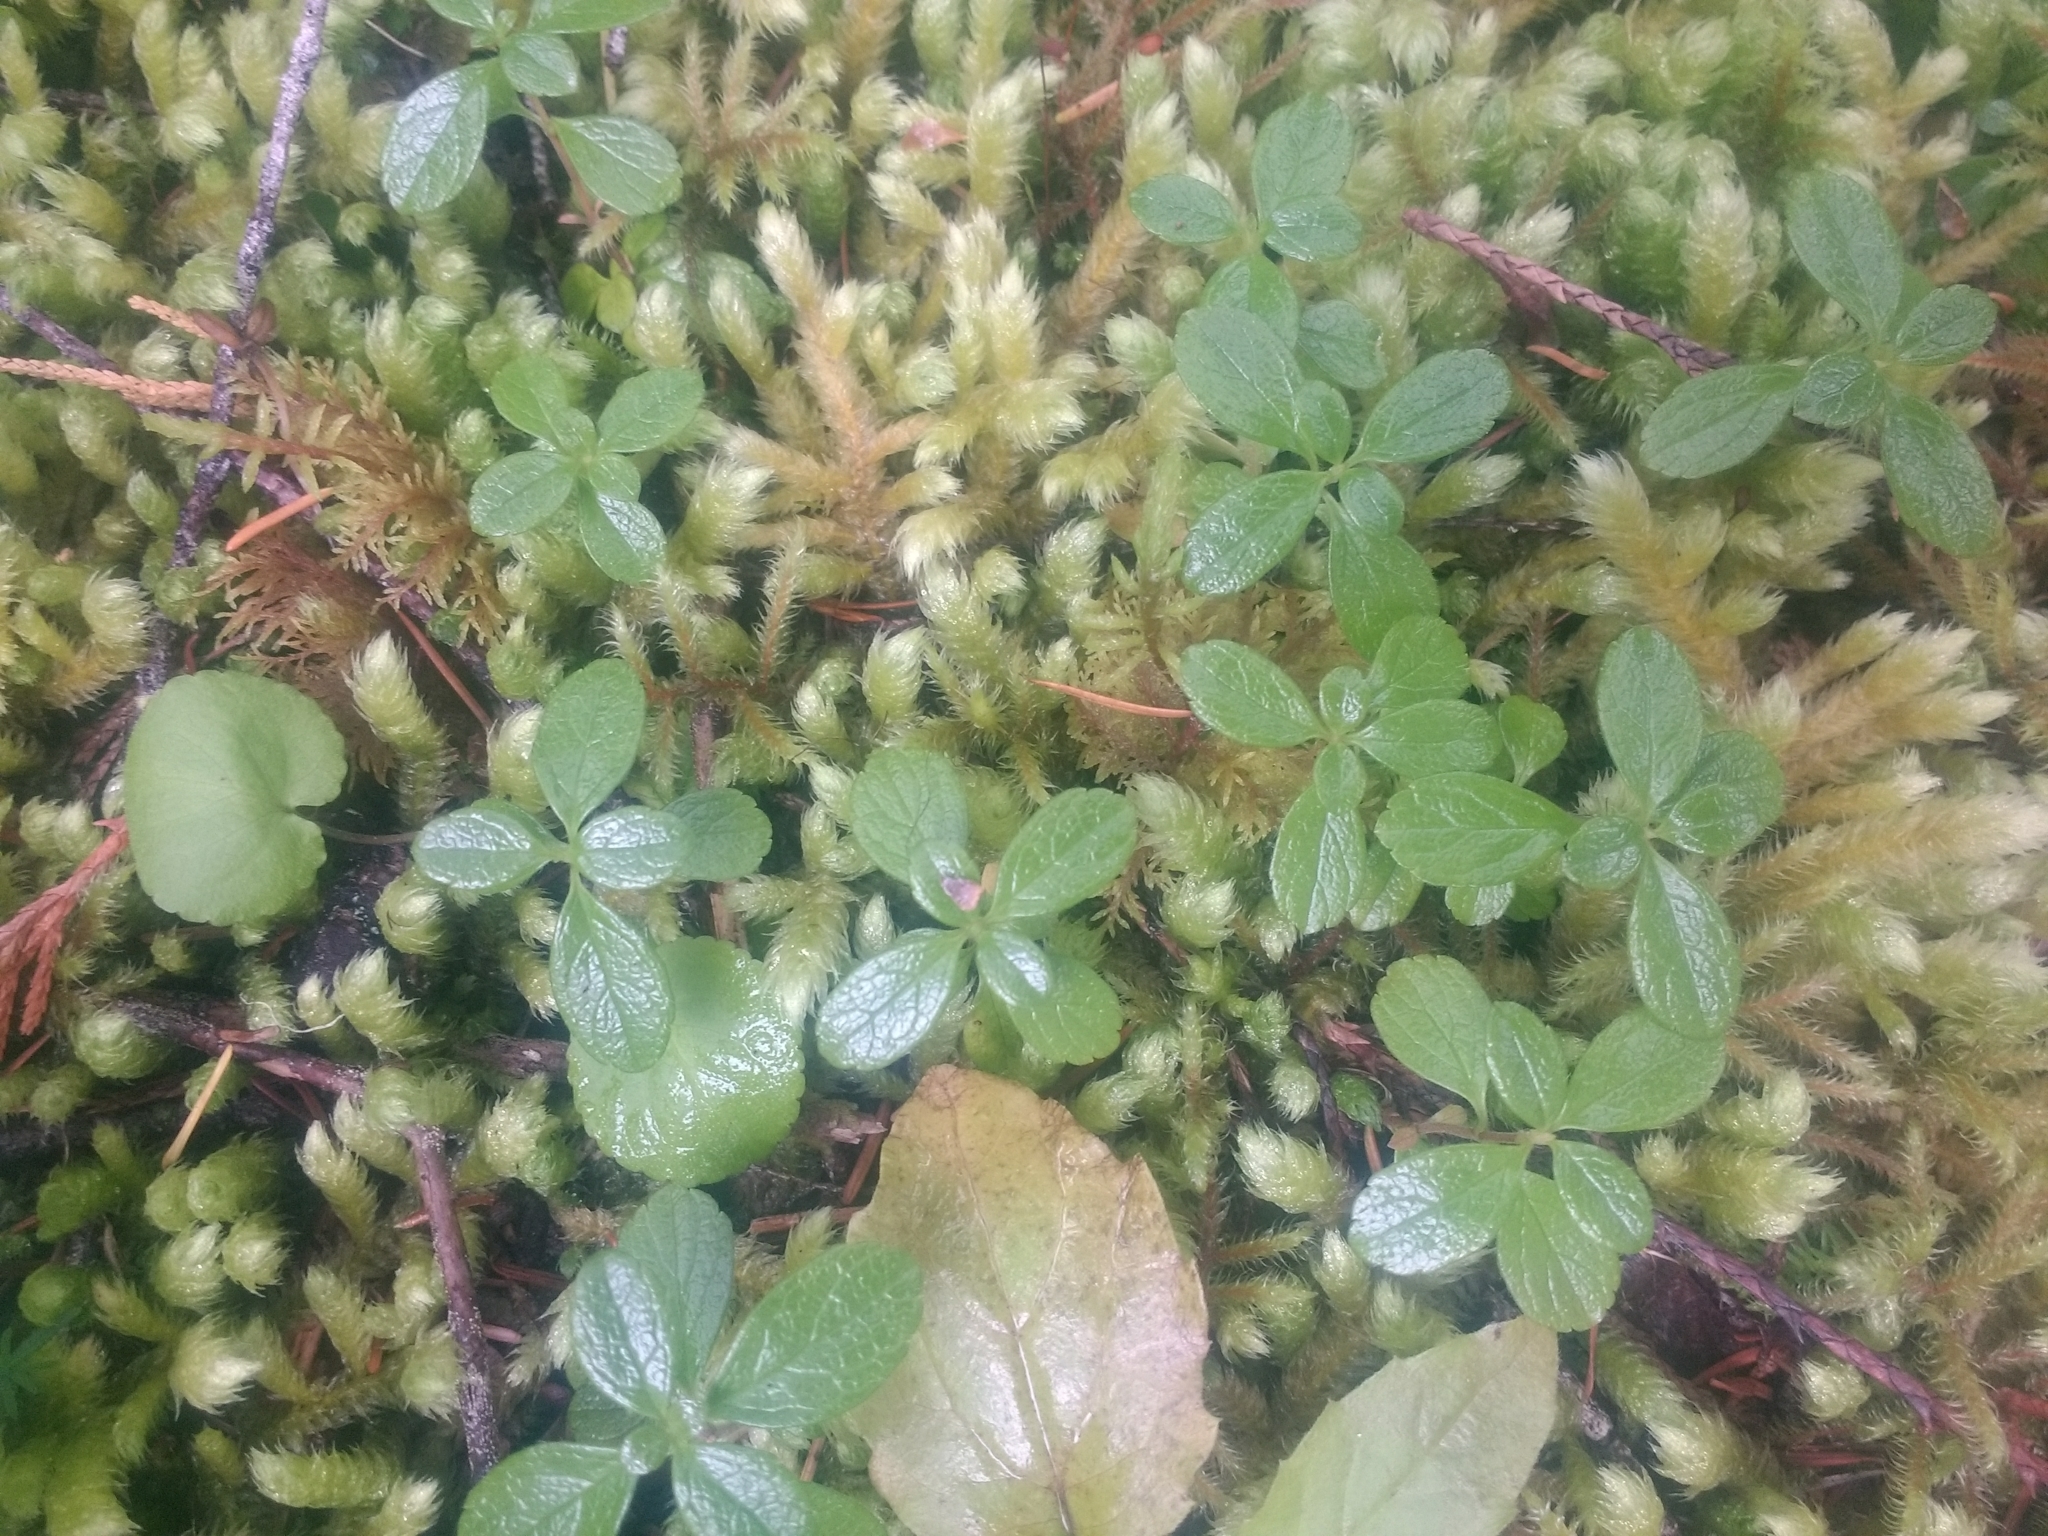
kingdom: Plantae
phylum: Tracheophyta
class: Magnoliopsida
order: Dipsacales
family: Caprifoliaceae
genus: Linnaea
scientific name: Linnaea borealis
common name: Twinflower
